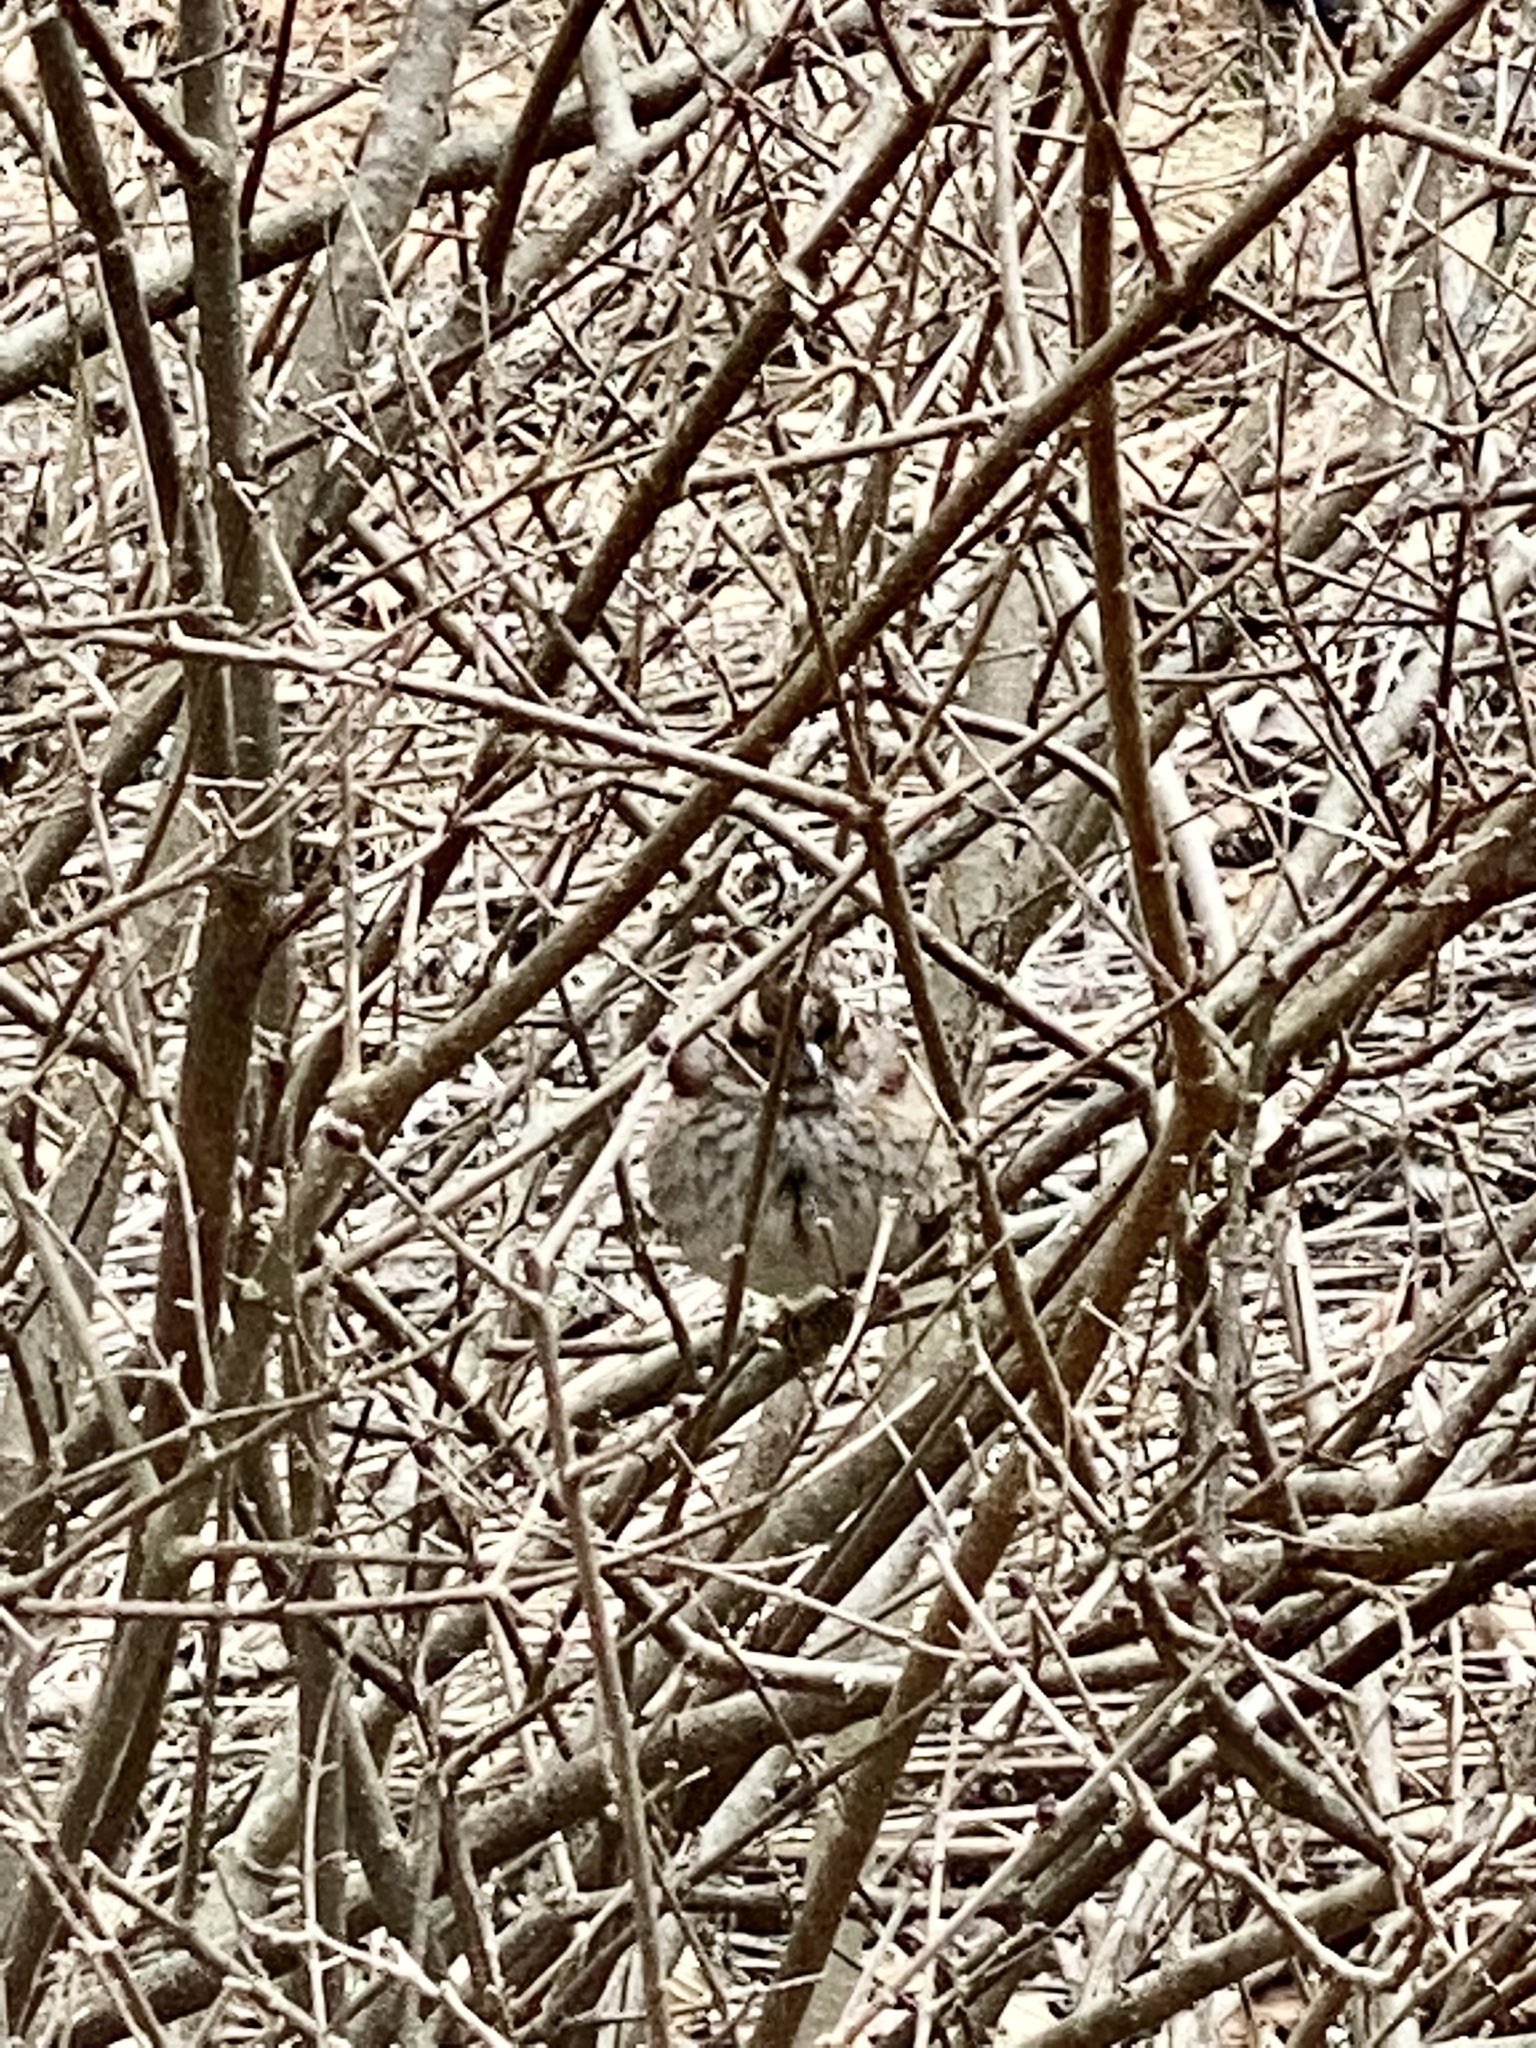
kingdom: Animalia
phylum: Chordata
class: Aves
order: Passeriformes
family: Passerellidae
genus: Zonotrichia
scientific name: Zonotrichia albicollis
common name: White-throated sparrow
